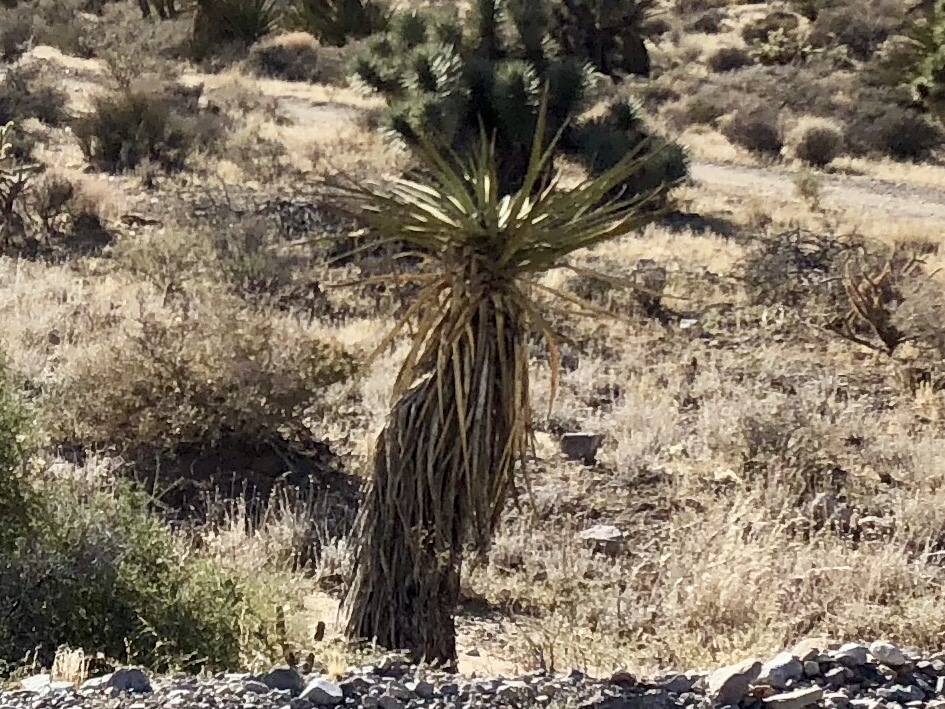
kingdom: Plantae
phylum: Tracheophyta
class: Liliopsida
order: Asparagales
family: Asparagaceae
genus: Yucca
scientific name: Yucca schidigera
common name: Mojave yucca
